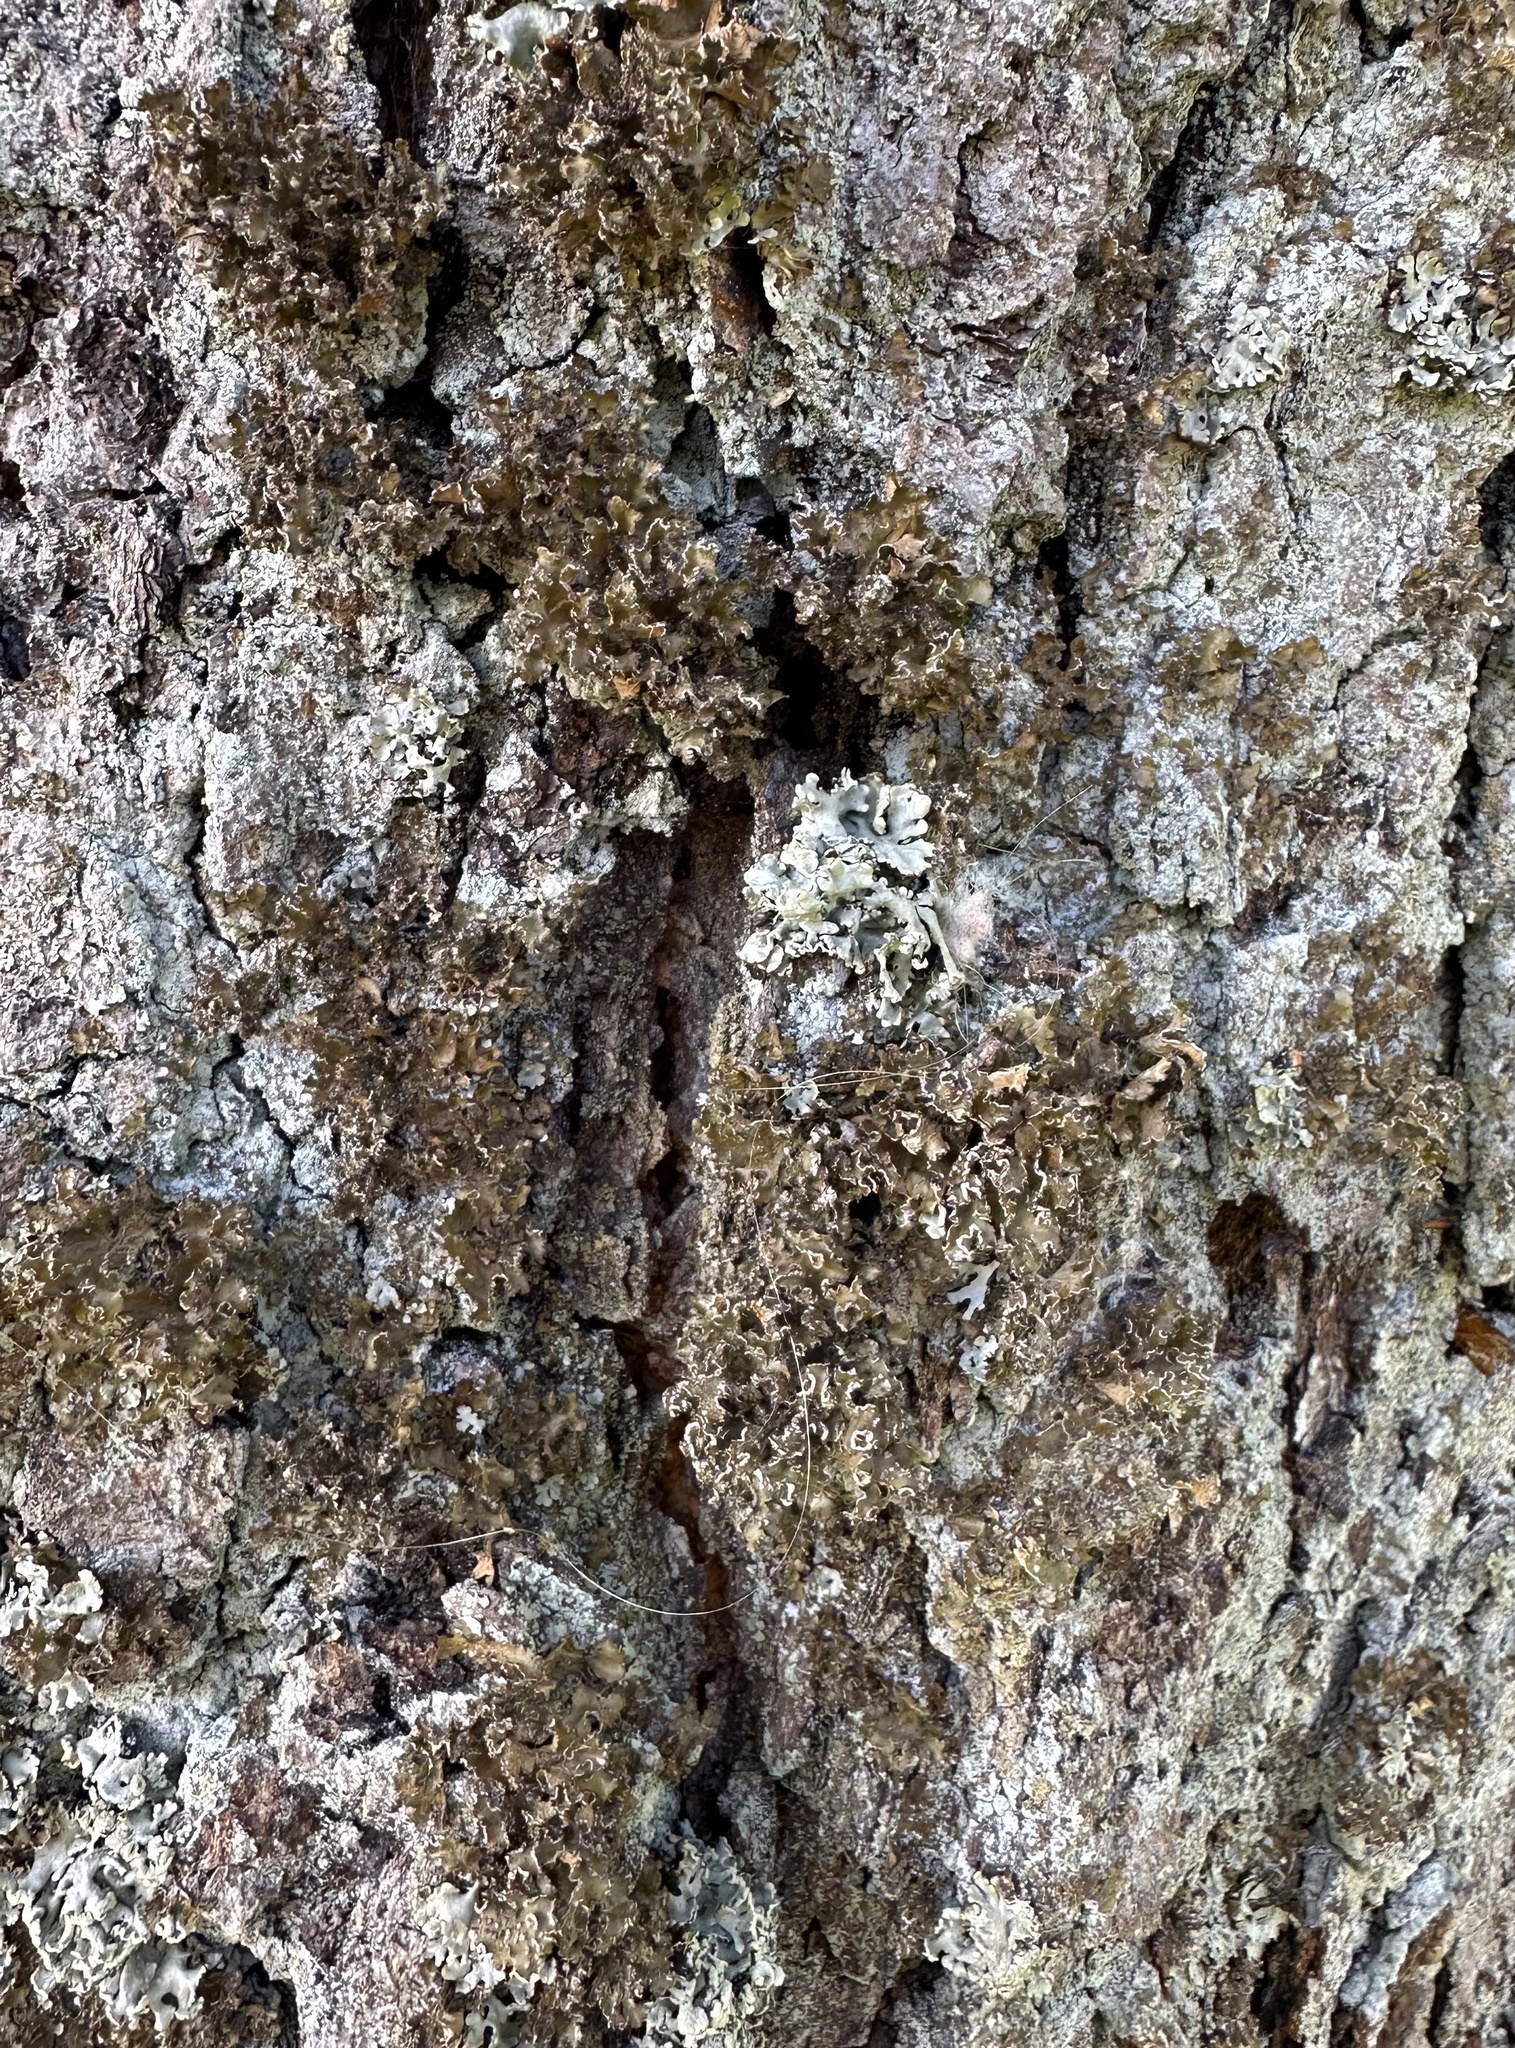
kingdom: Fungi
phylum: Ascomycota
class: Lecanoromycetes
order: Lecanorales
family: Parmeliaceae
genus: Nephromopsis
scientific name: Nephromopsis chlorophylla
